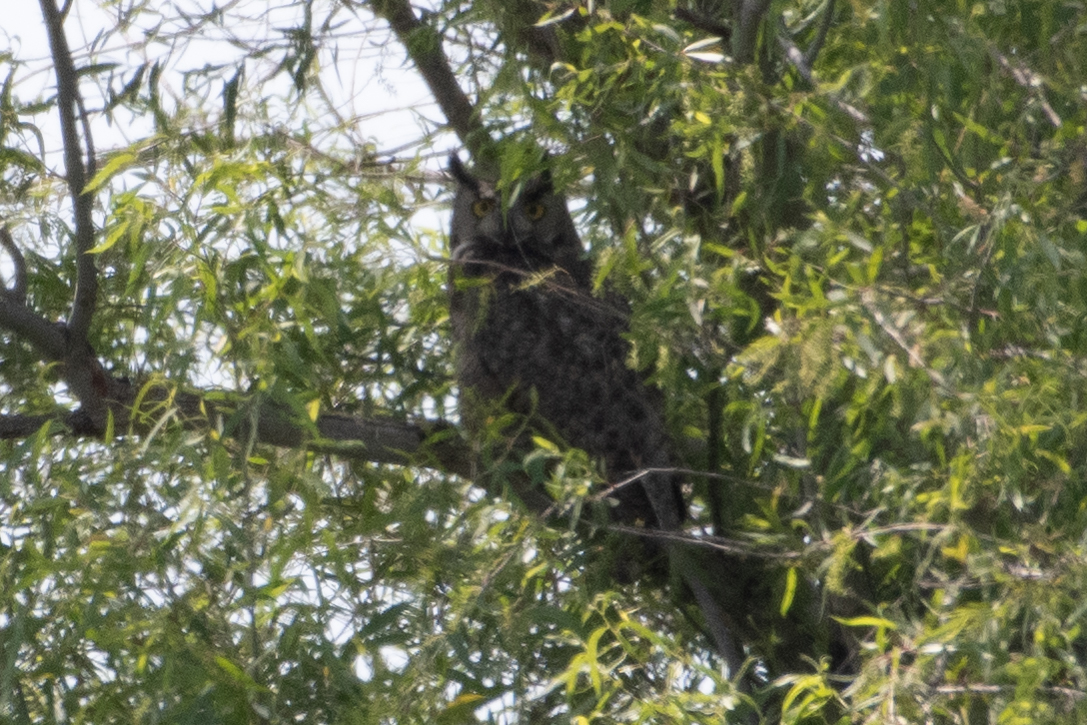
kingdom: Animalia
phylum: Chordata
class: Aves
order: Strigiformes
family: Strigidae
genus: Bubo
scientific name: Bubo virginianus
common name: Great horned owl
